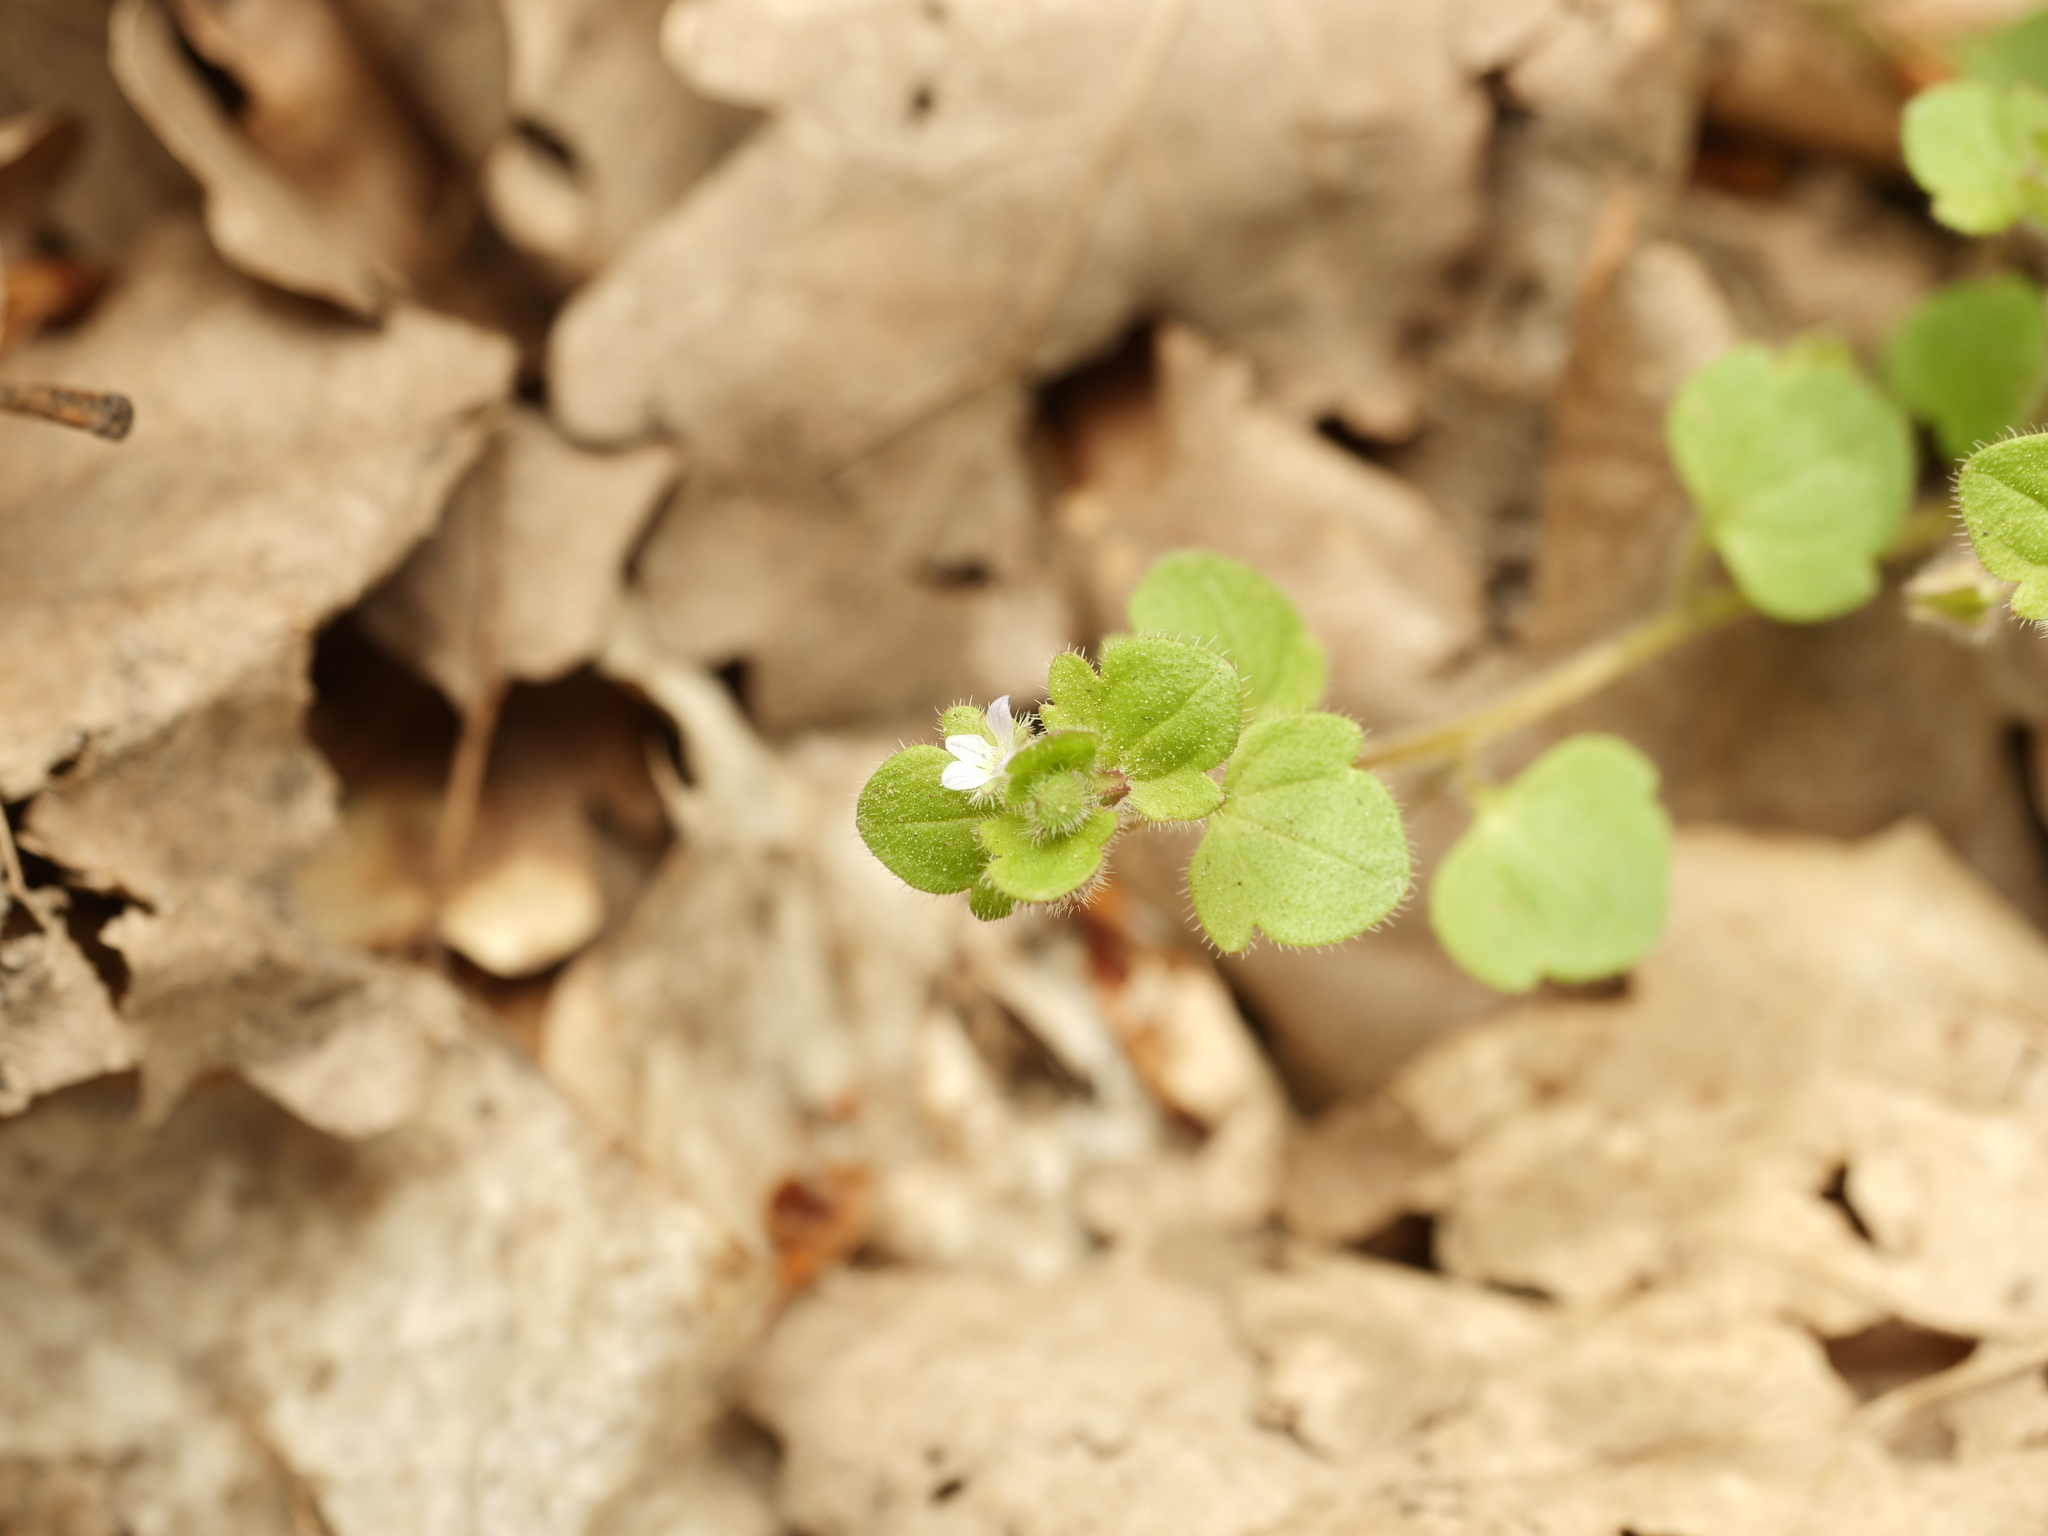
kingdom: Plantae
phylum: Tracheophyta
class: Magnoliopsida
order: Lamiales
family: Plantaginaceae
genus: Veronica
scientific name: Veronica sublobata
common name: False ivy-leaved speedwell
